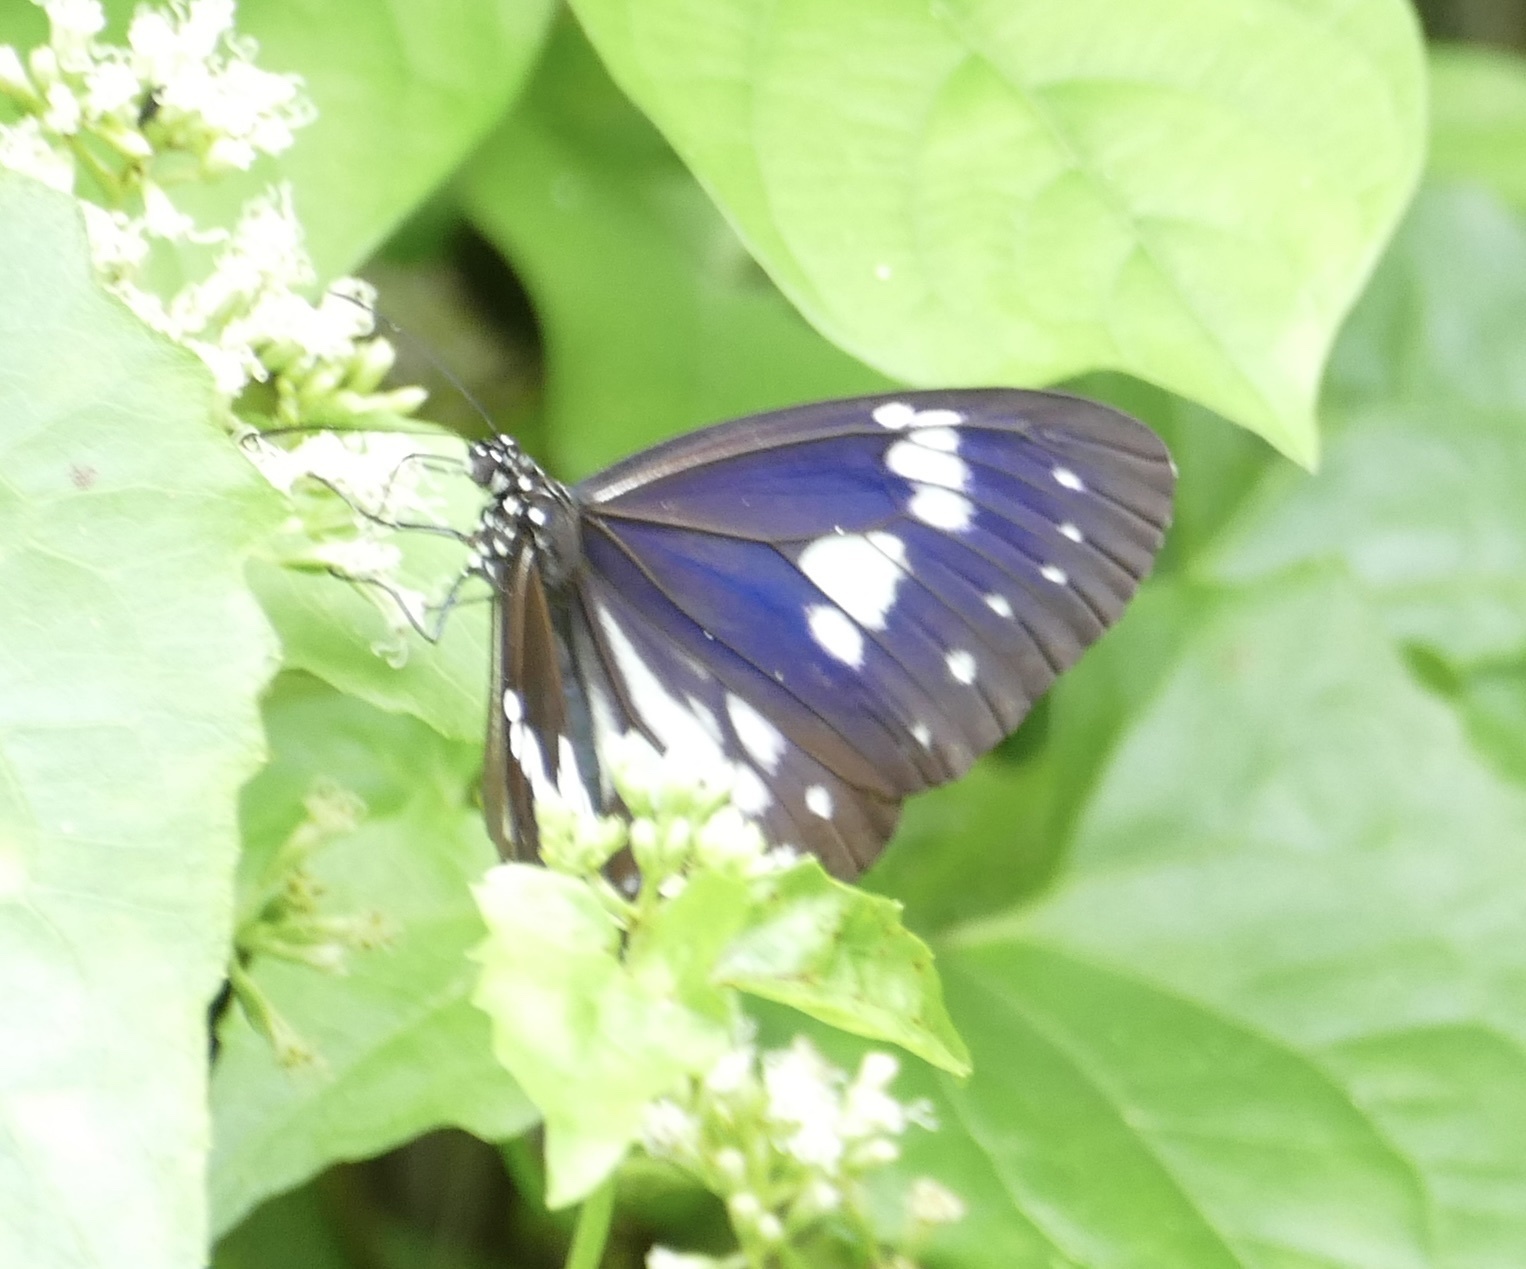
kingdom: Animalia
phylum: Arthropoda
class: Insecta
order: Lepidoptera
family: Nymphalidae
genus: Euploea
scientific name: Euploea hewitsonii
